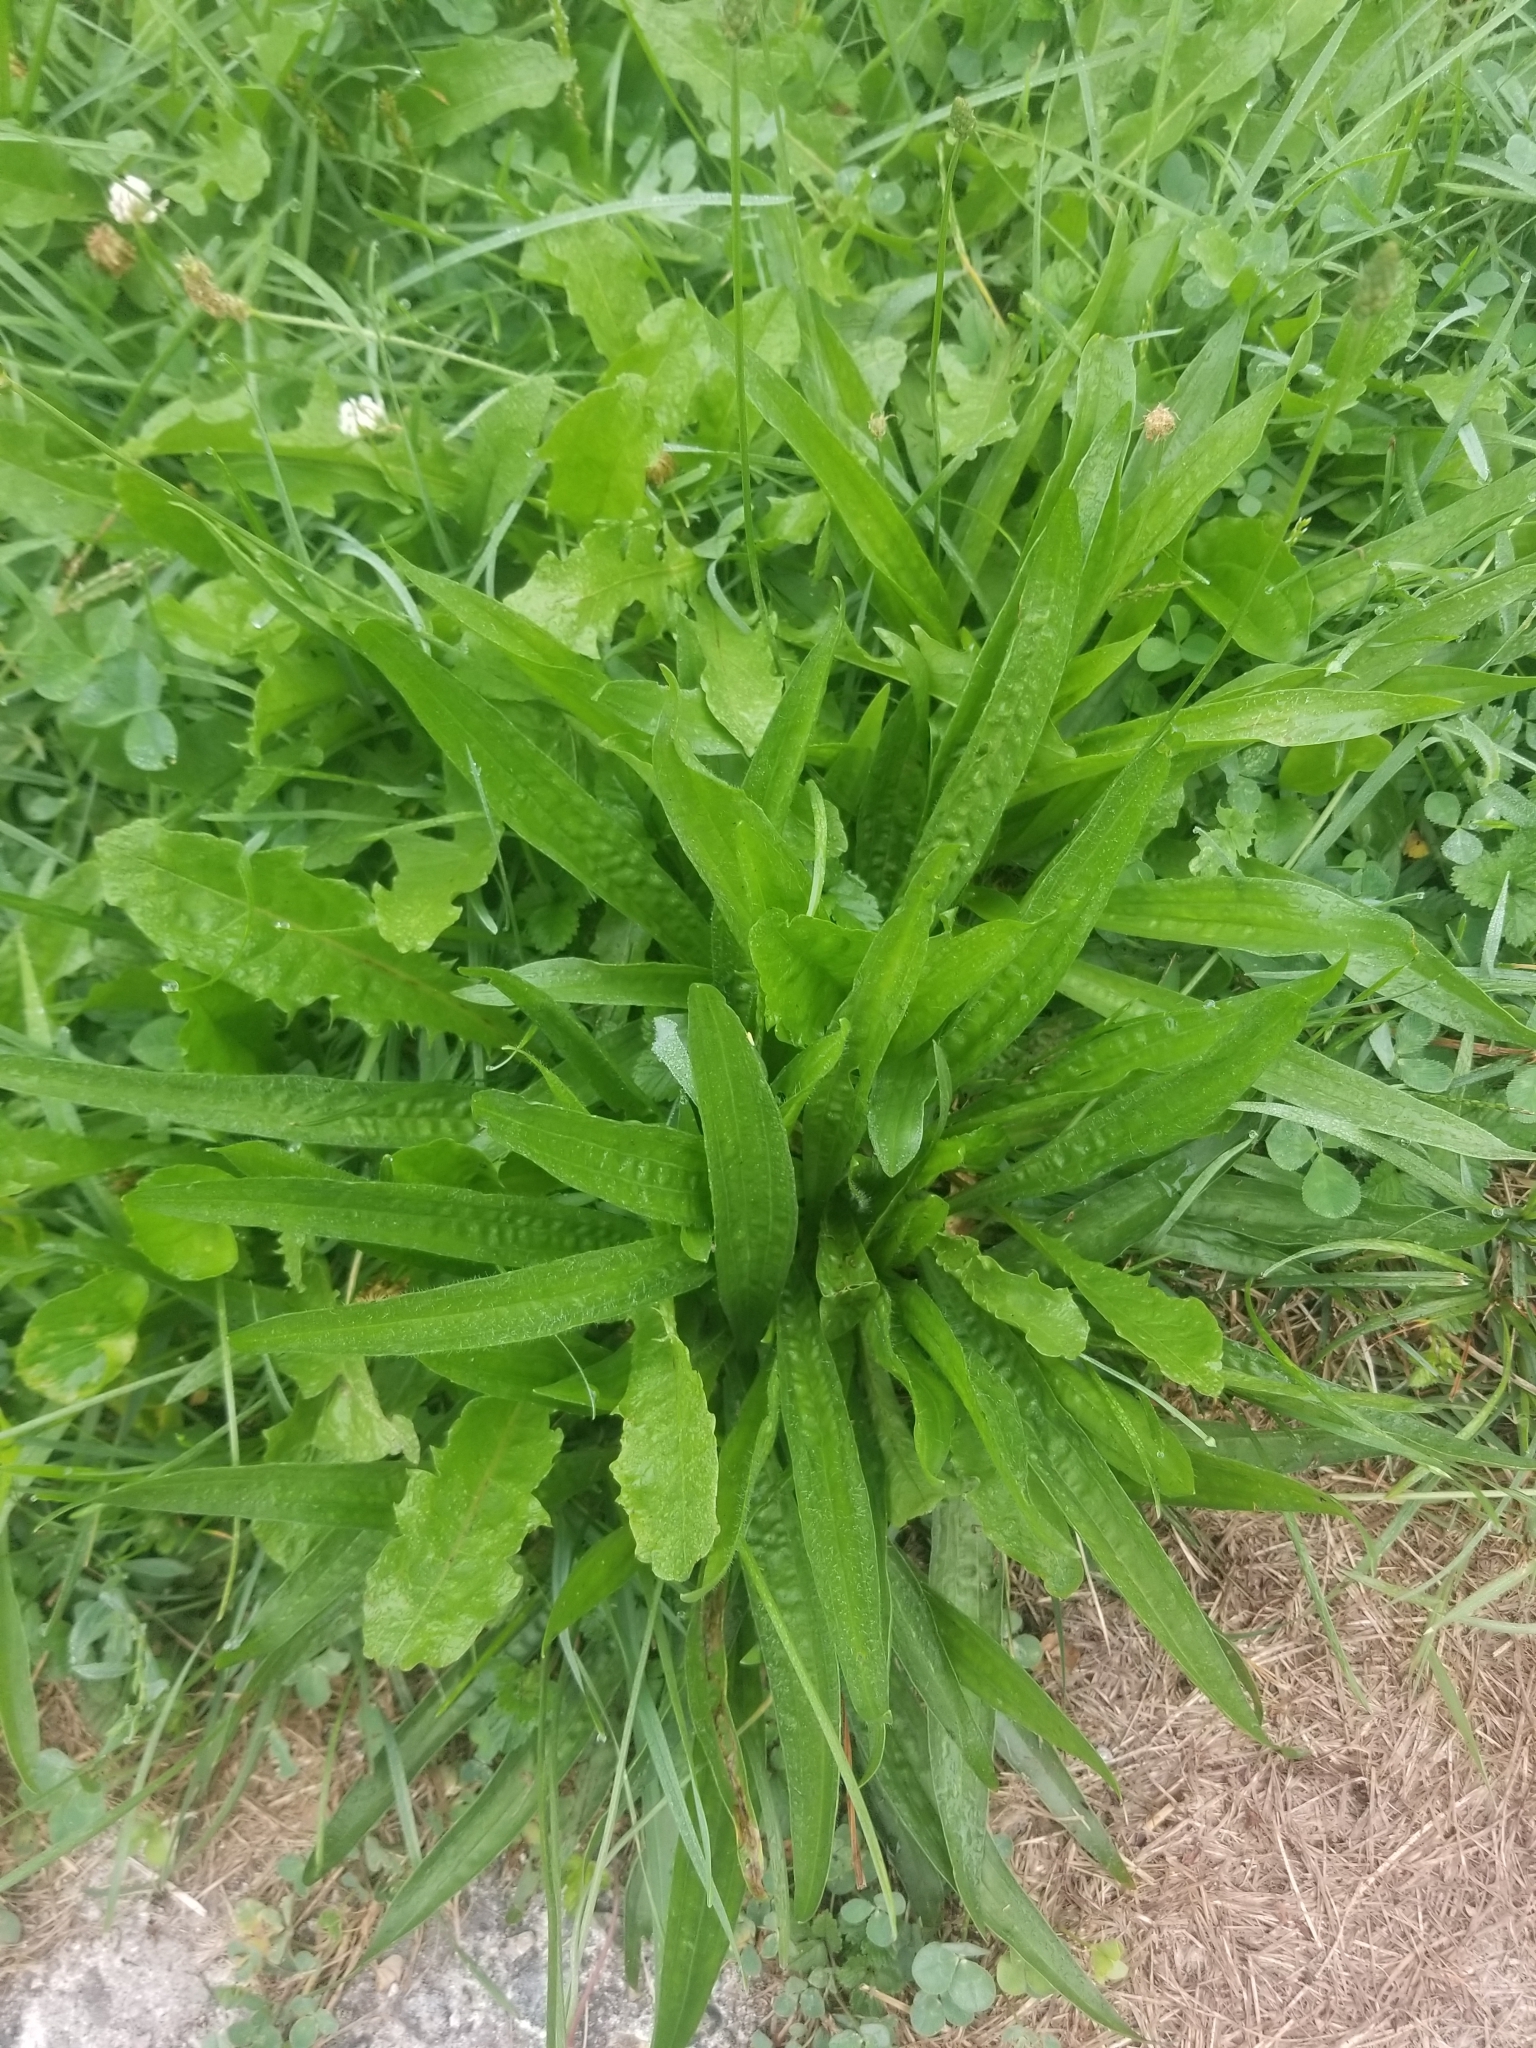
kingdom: Plantae
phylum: Tracheophyta
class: Magnoliopsida
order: Lamiales
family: Plantaginaceae
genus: Plantago
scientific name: Plantago lanceolata
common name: Ribwort plantain
